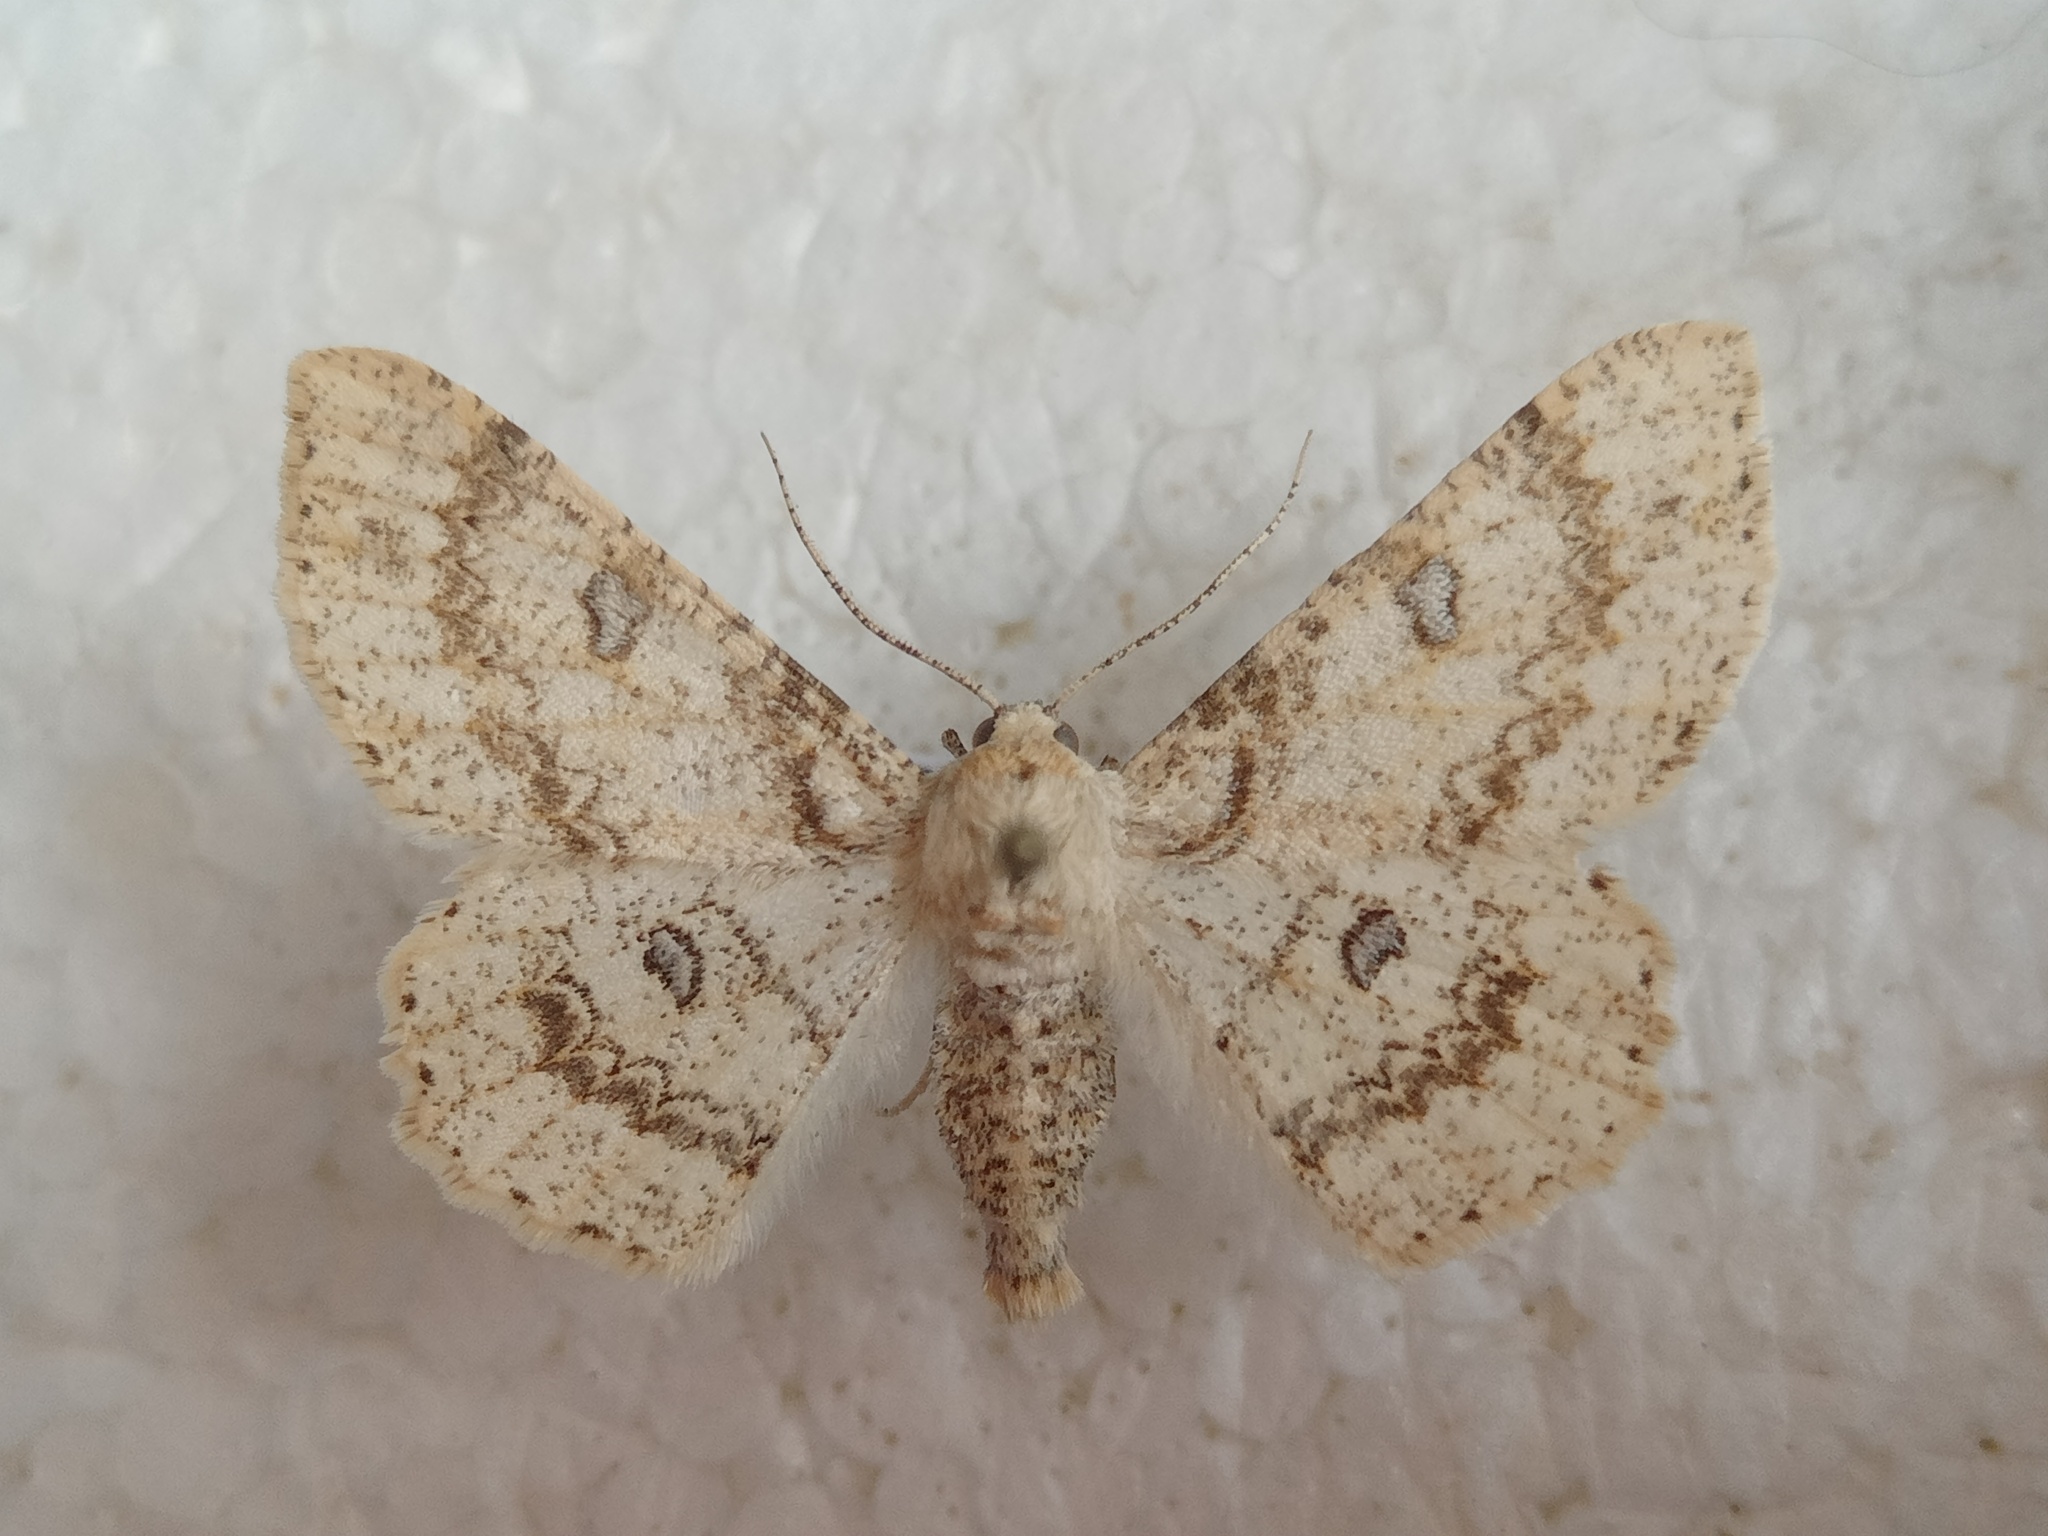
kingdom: Animalia
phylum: Arthropoda
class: Insecta
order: Lepidoptera
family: Geometridae
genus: Ascotis
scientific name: Ascotis selenaria
